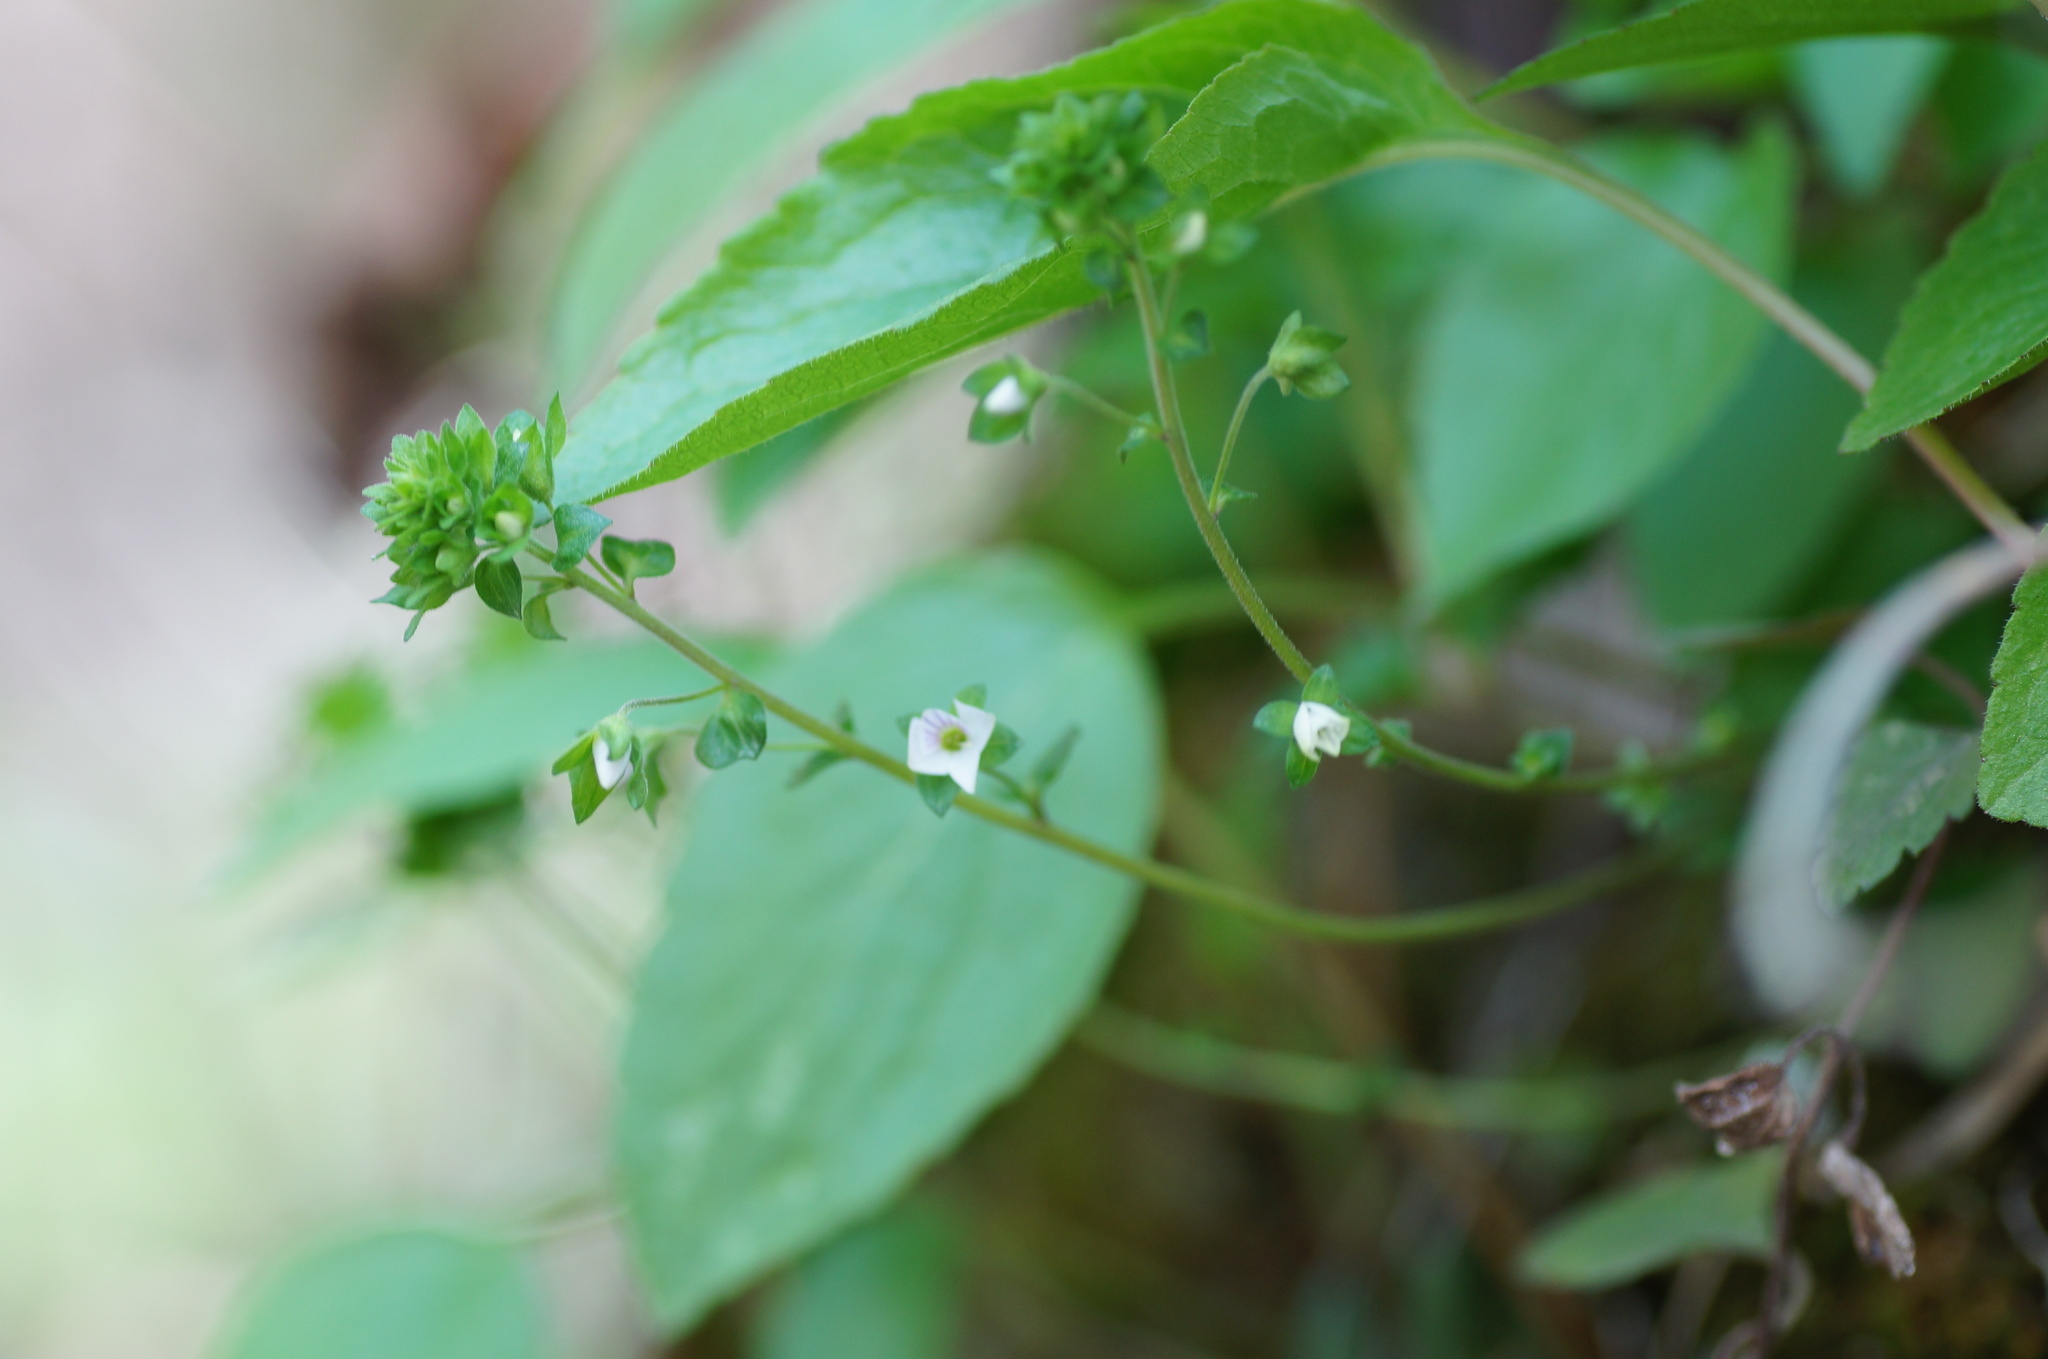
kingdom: Plantae
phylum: Tracheophyta
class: Magnoliopsida
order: Lamiales
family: Plantaginaceae
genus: Veronica
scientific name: Veronica serpyllifolia
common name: Thyme-leaved speedwell
